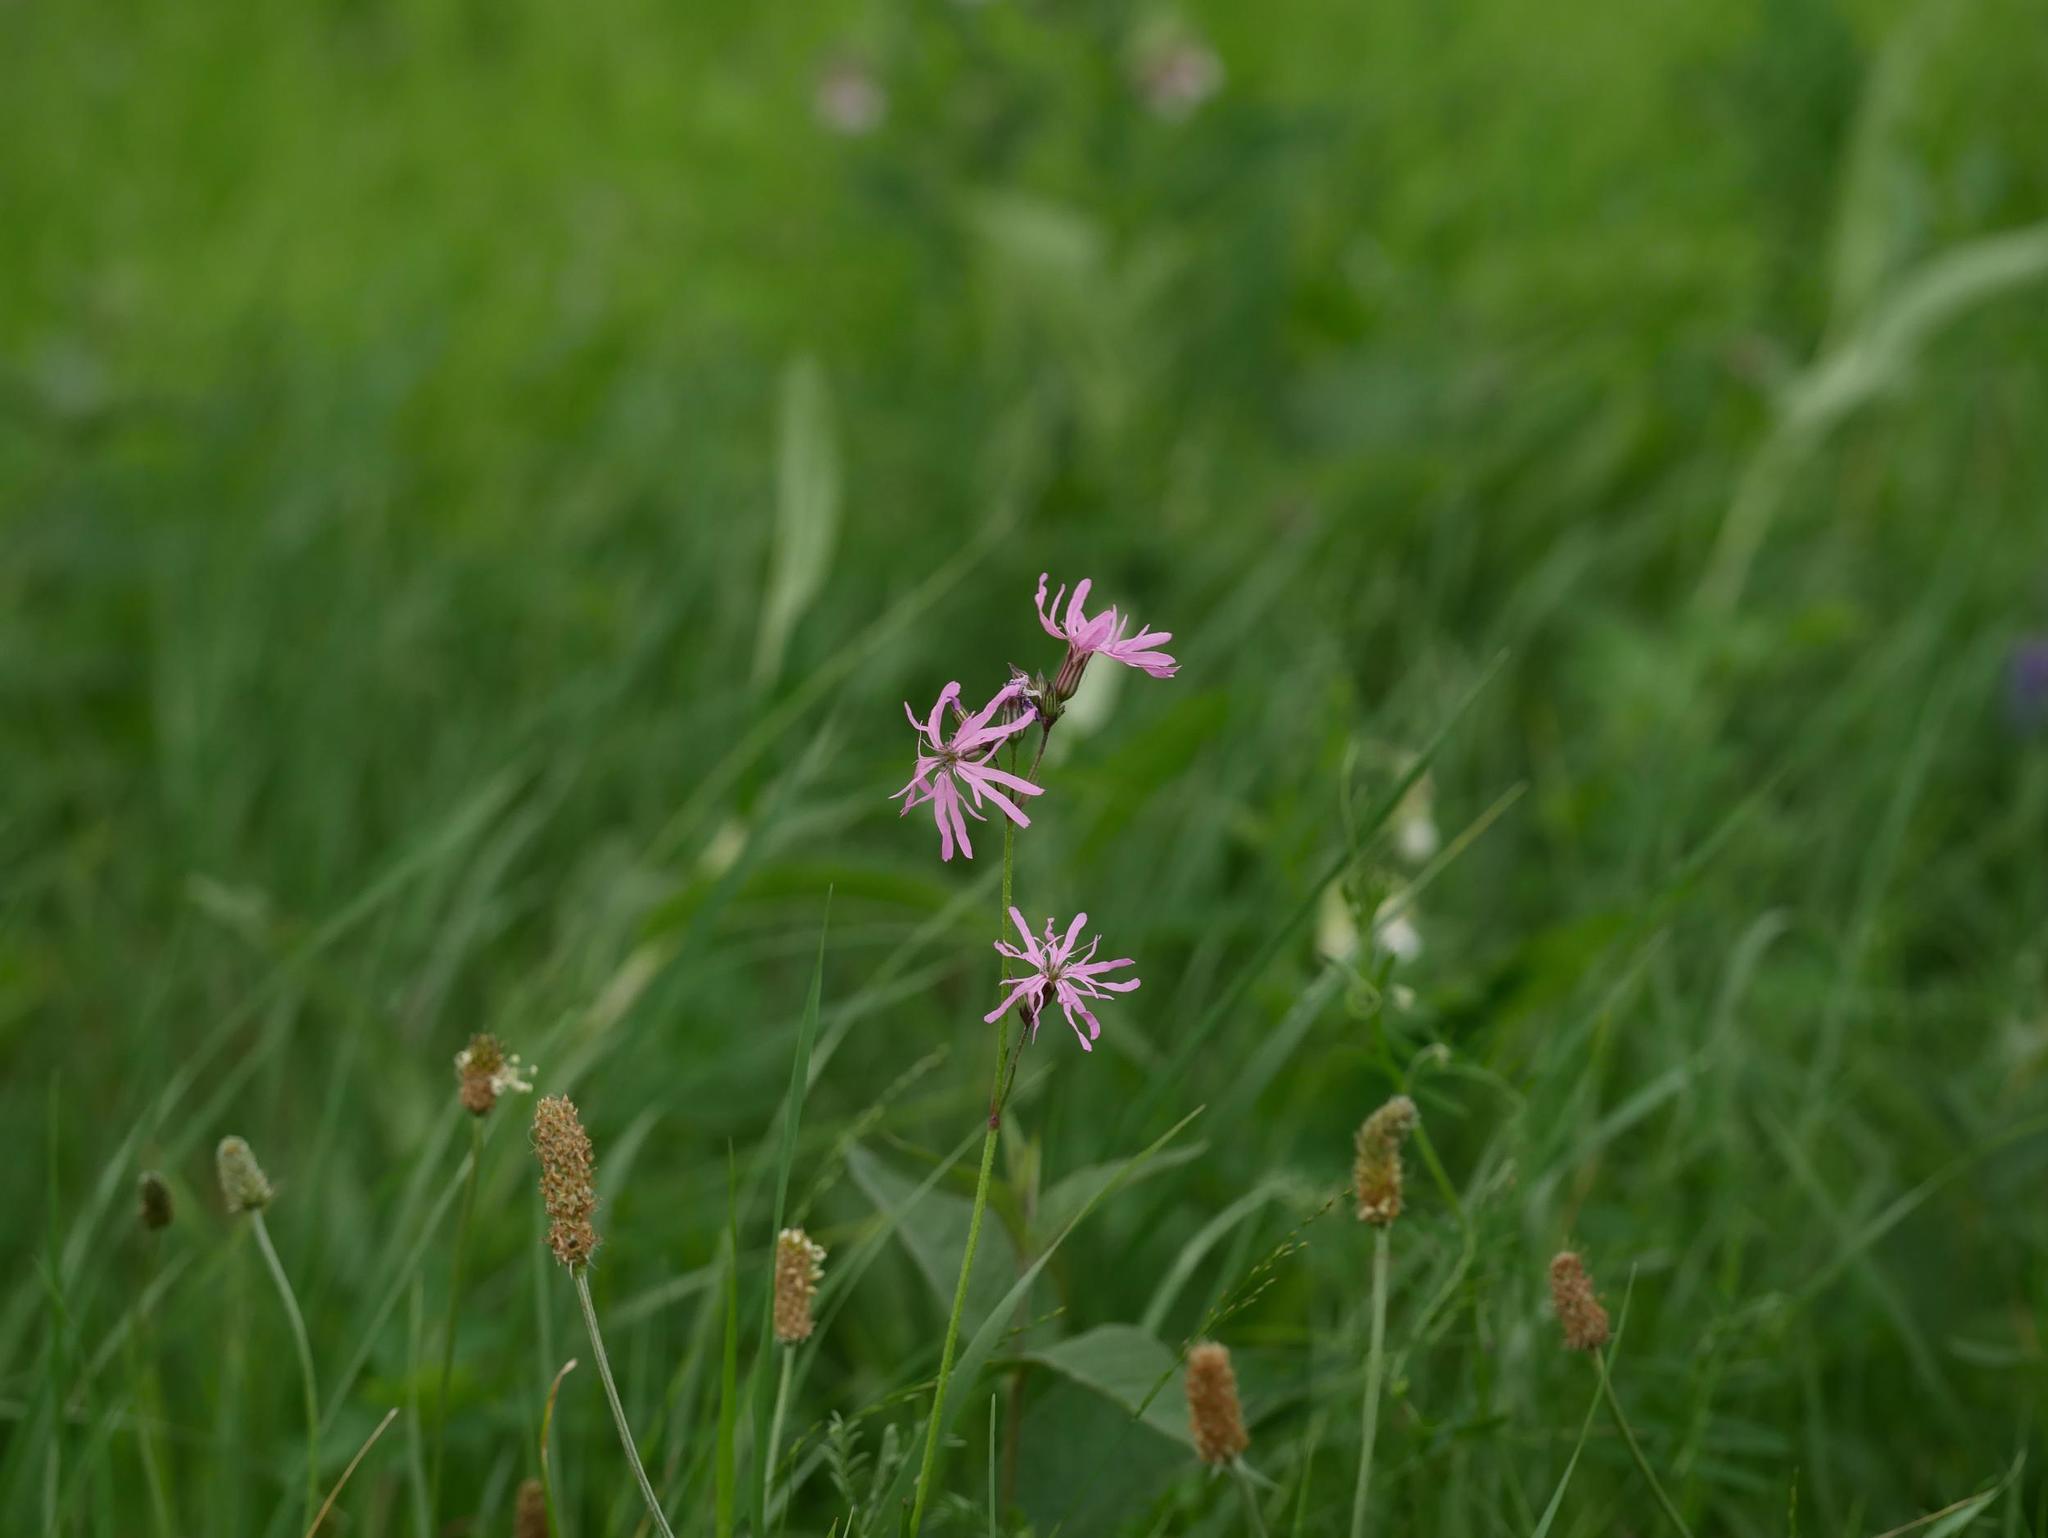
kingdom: Plantae
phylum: Tracheophyta
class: Magnoliopsida
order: Caryophyllales
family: Caryophyllaceae
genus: Silene
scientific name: Silene flos-cuculi
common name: Ragged-robin
